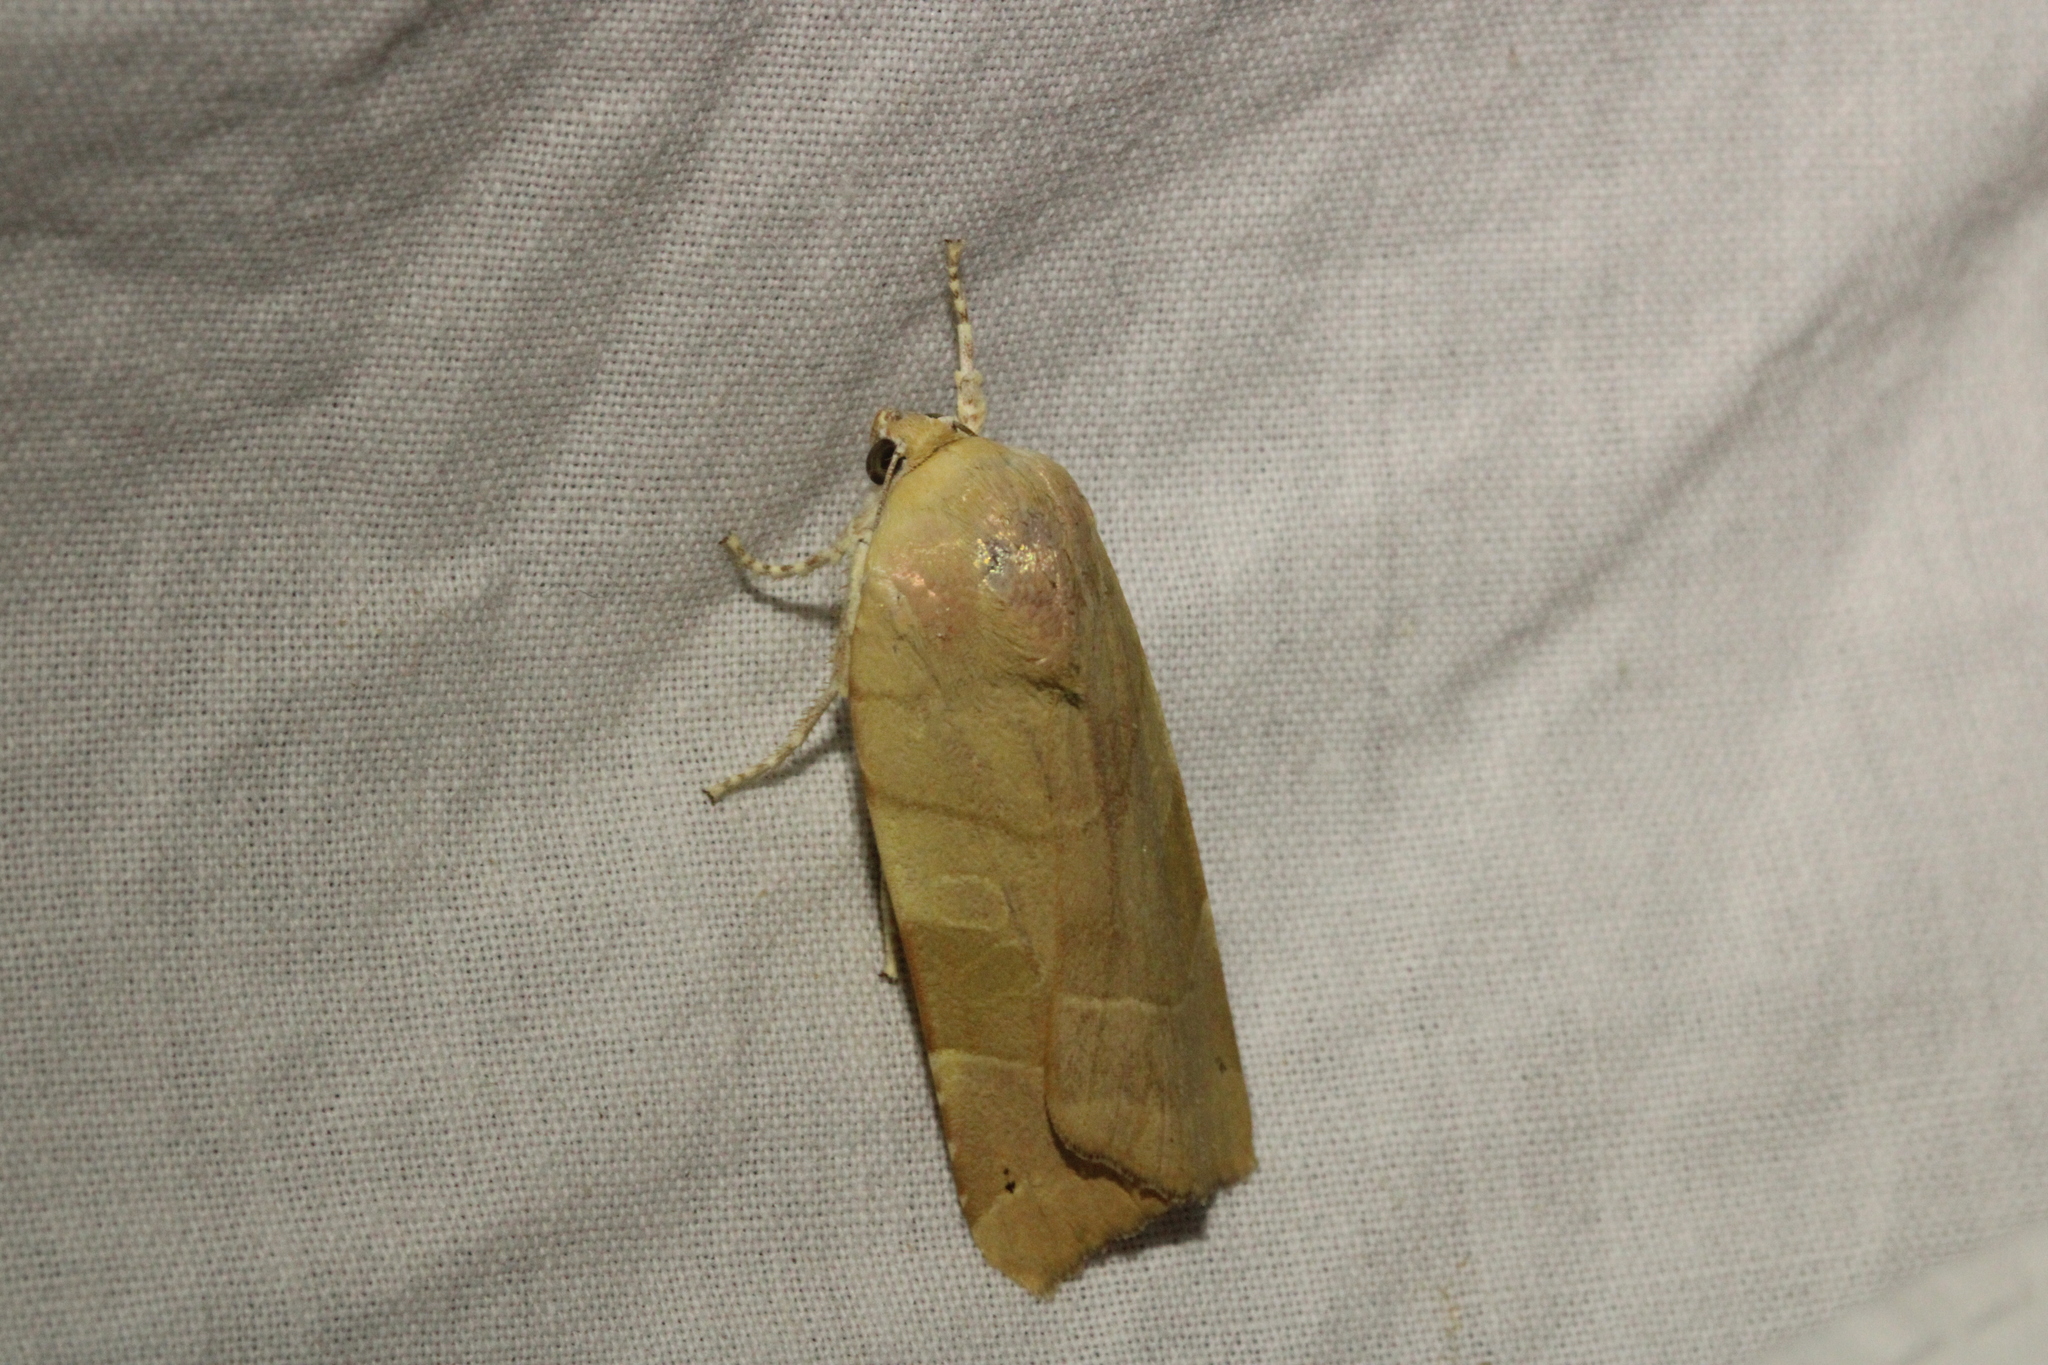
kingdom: Animalia
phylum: Arthropoda
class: Insecta
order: Lepidoptera
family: Noctuidae
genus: Noctua
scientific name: Noctua fimbriata
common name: Broad-bordered yellow underwing
